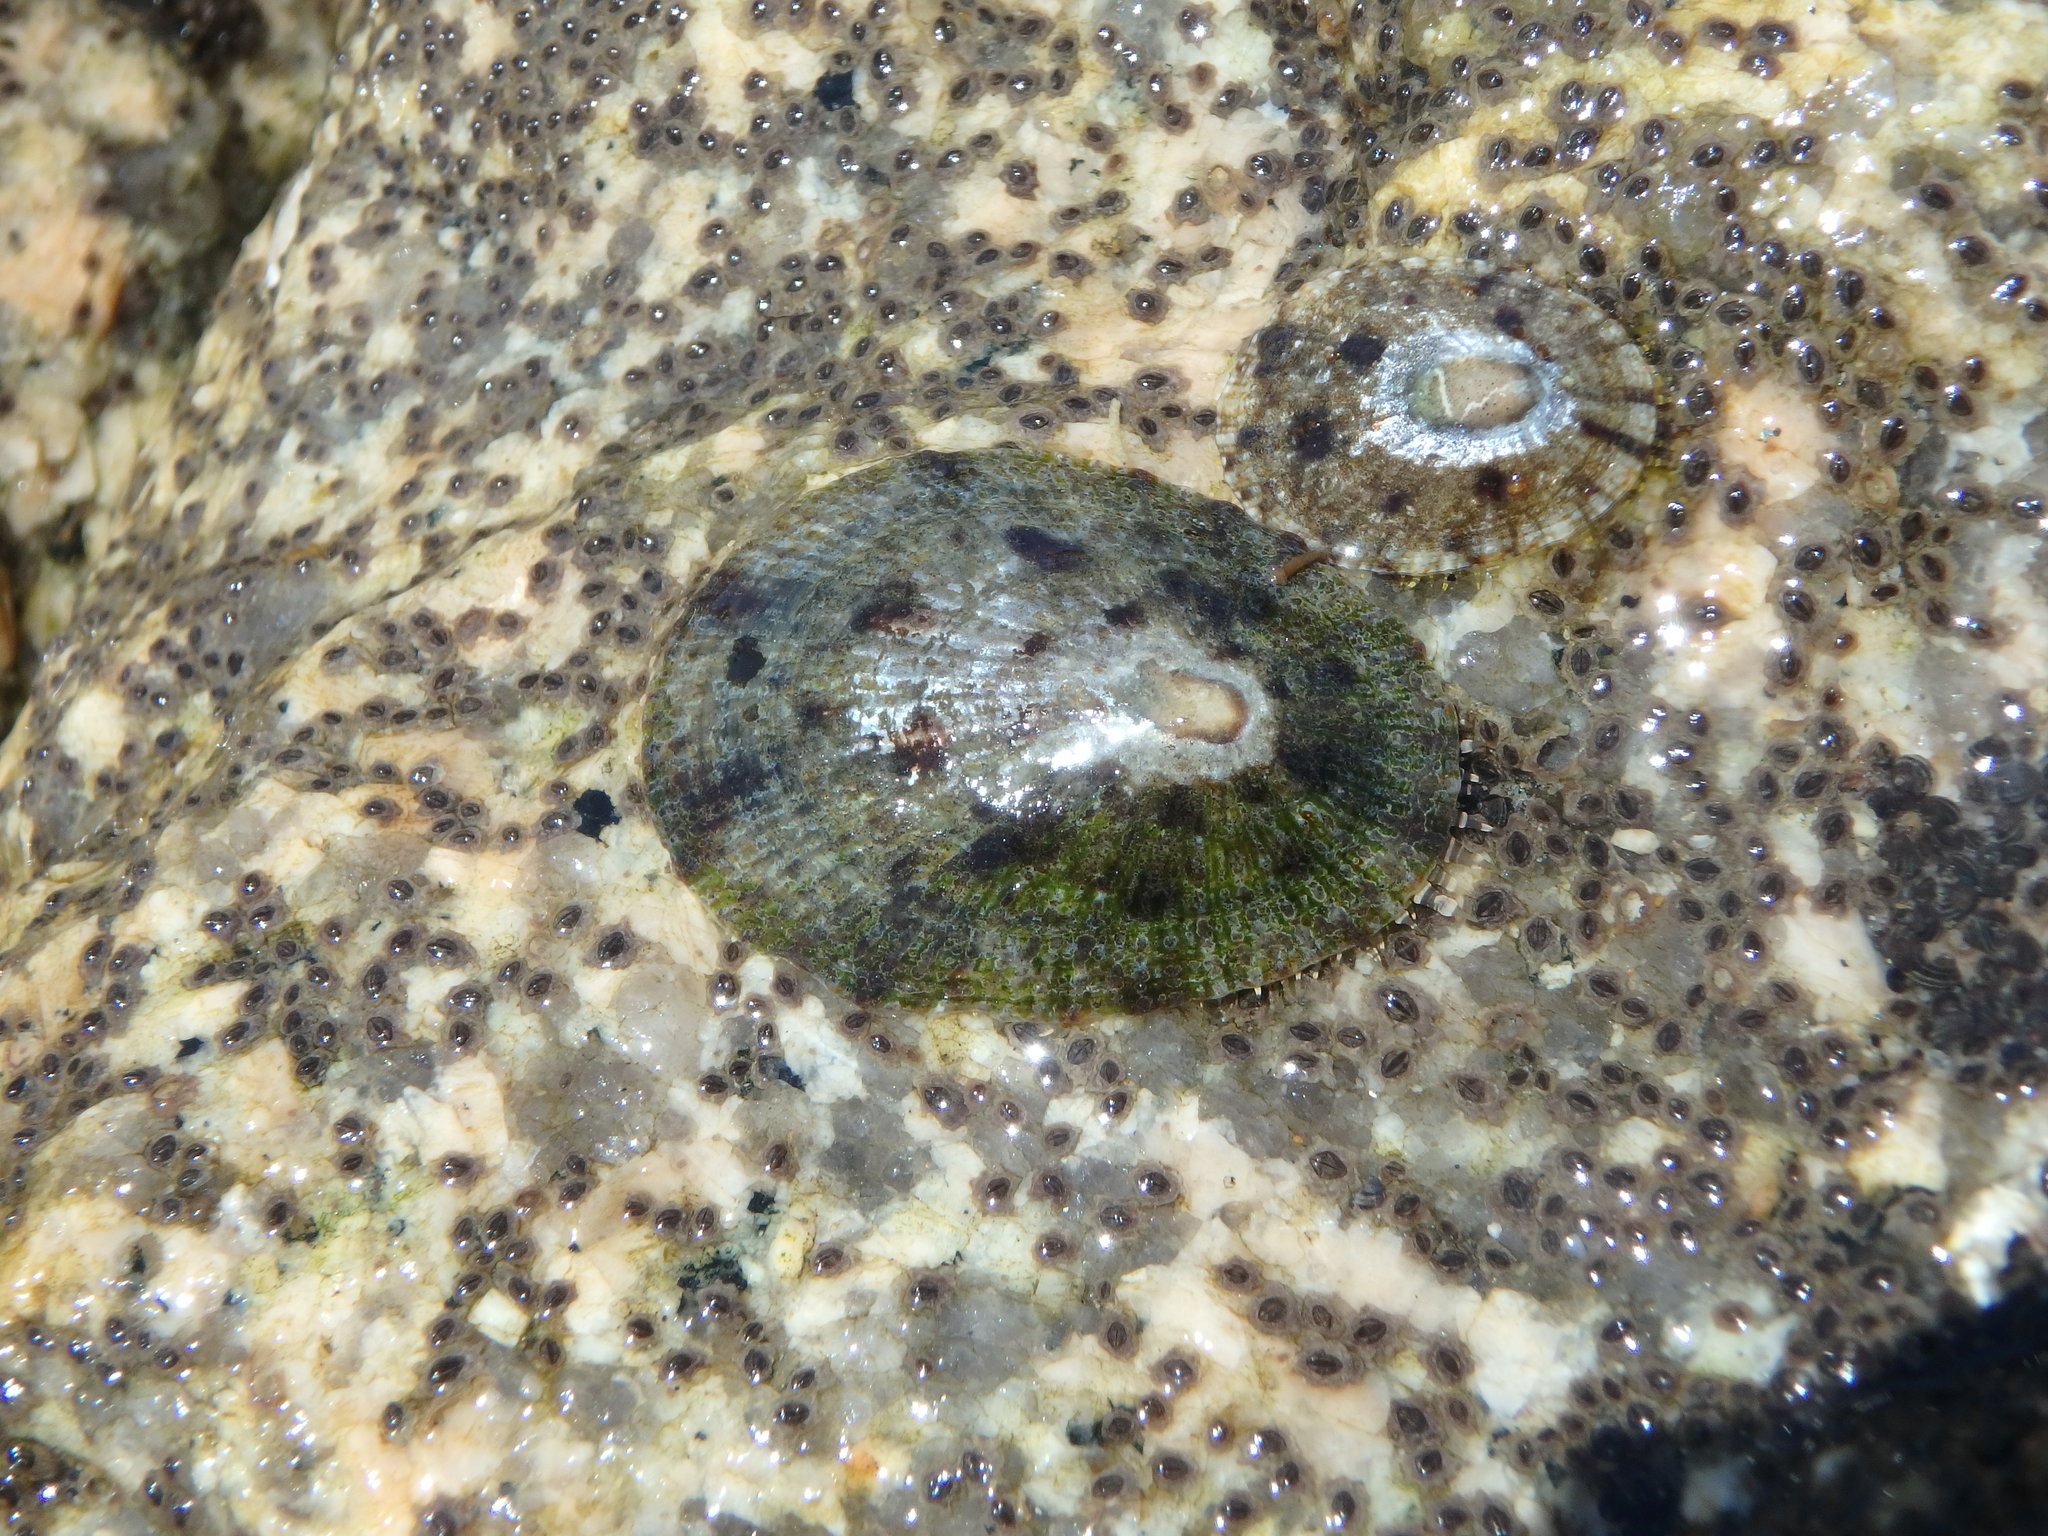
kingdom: Animalia
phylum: Mollusca
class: Gastropoda
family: Nacellidae
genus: Cellana
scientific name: Cellana toreuma
